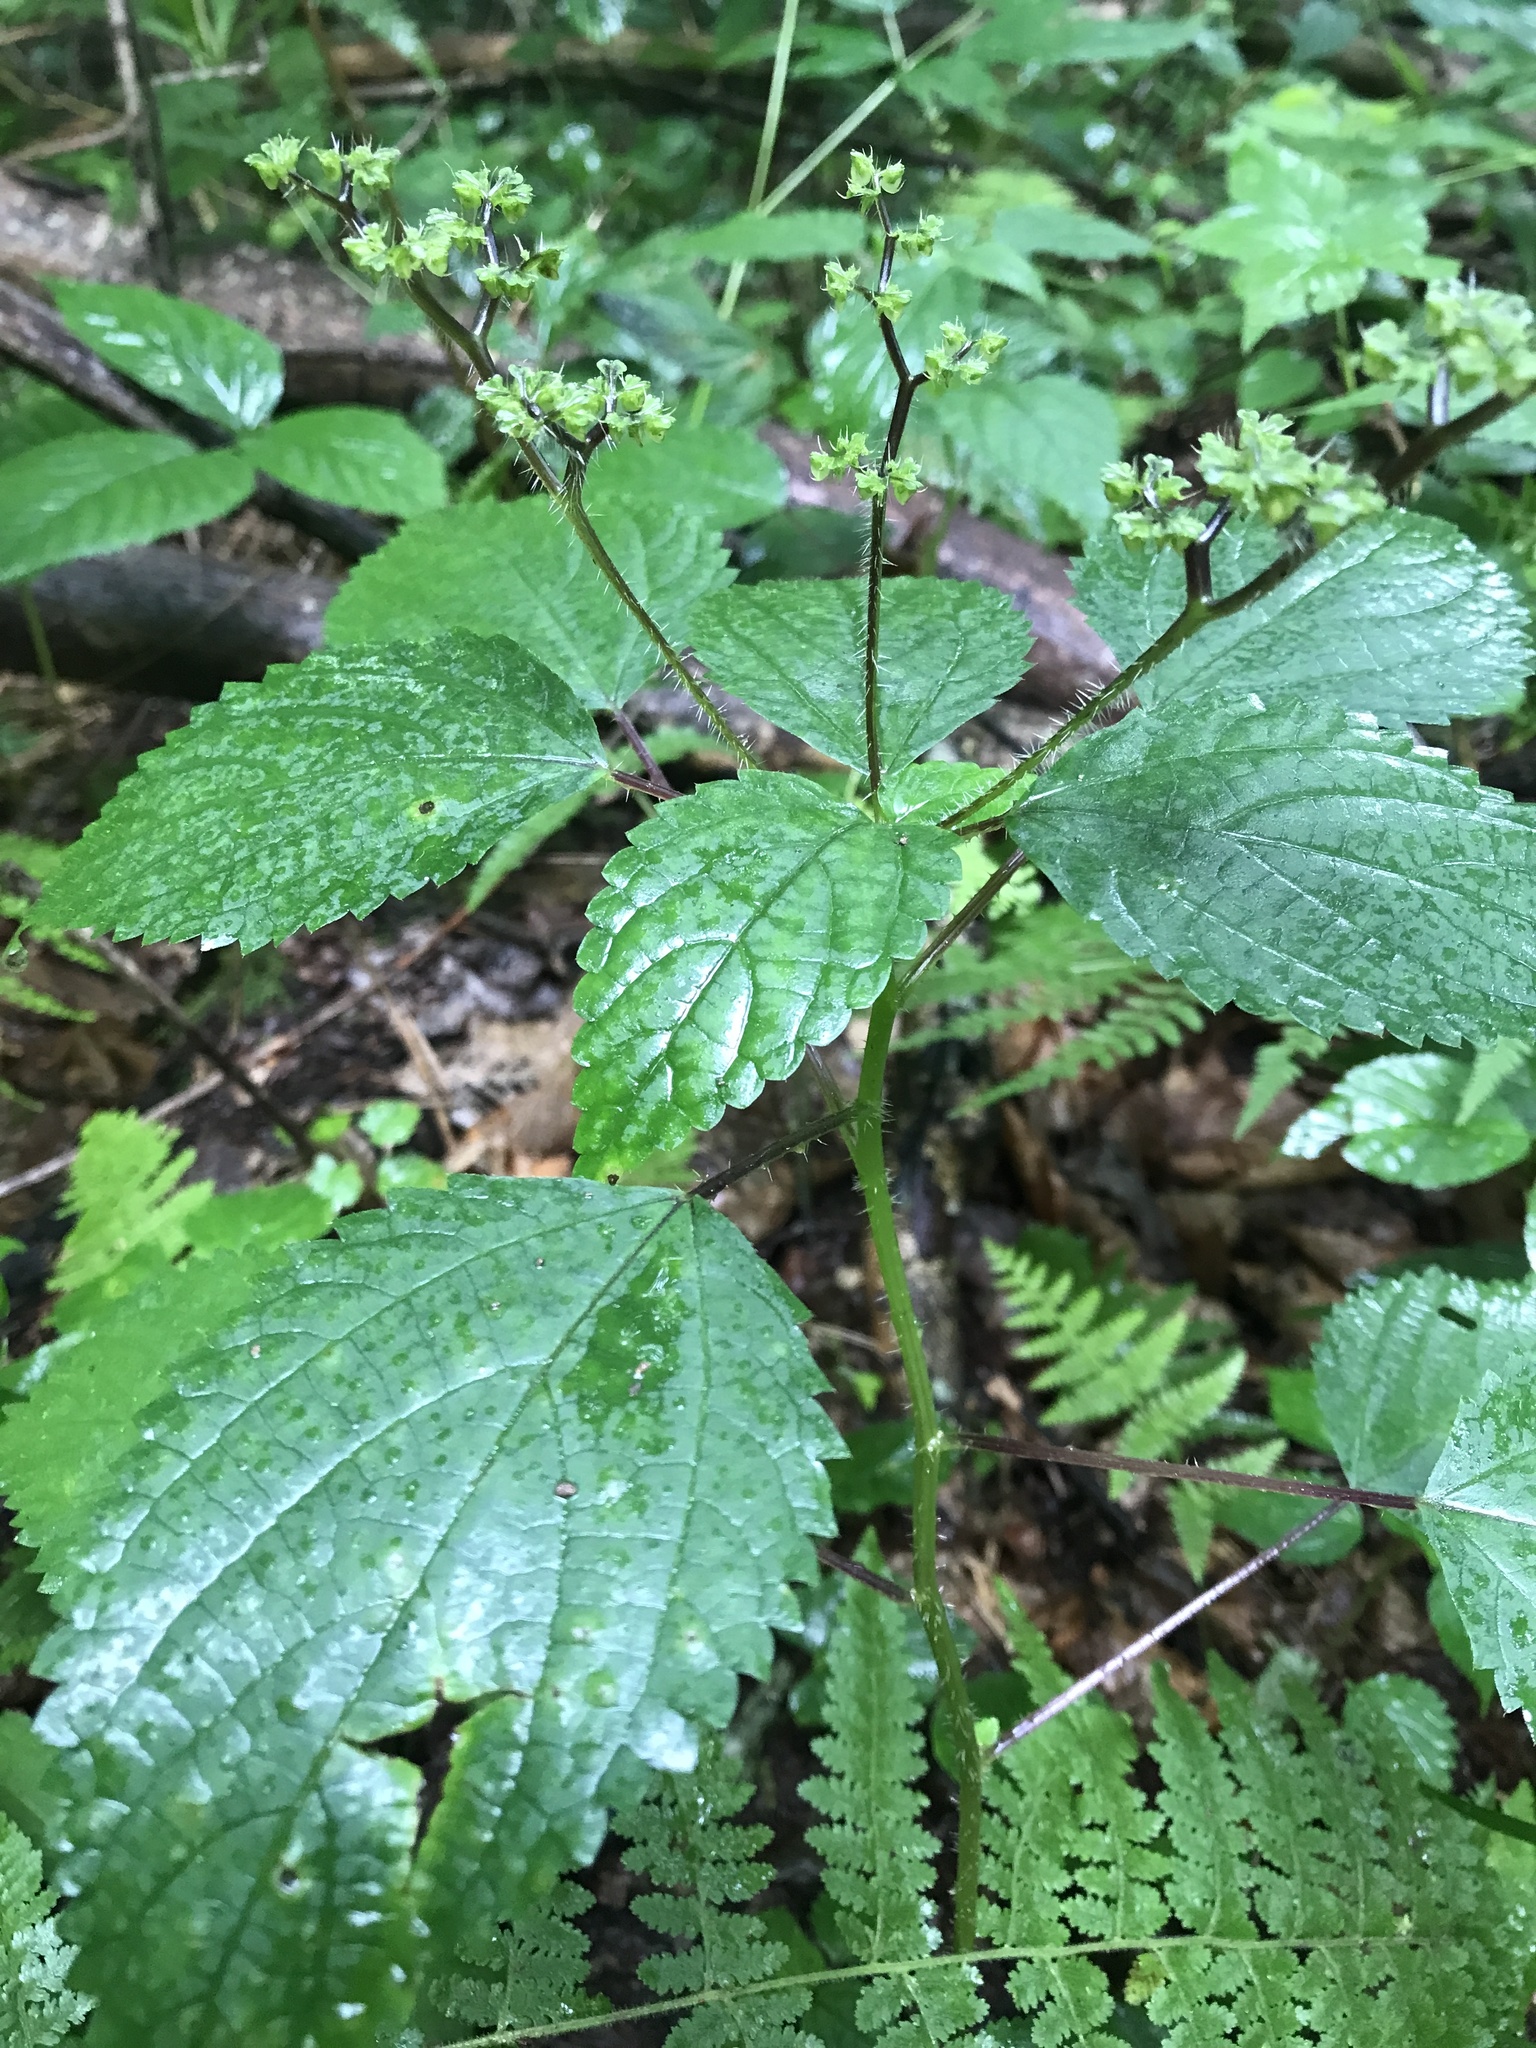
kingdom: Plantae
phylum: Tracheophyta
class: Magnoliopsida
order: Rosales
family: Urticaceae
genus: Laportea
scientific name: Laportea canadensis
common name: Canada nettle
